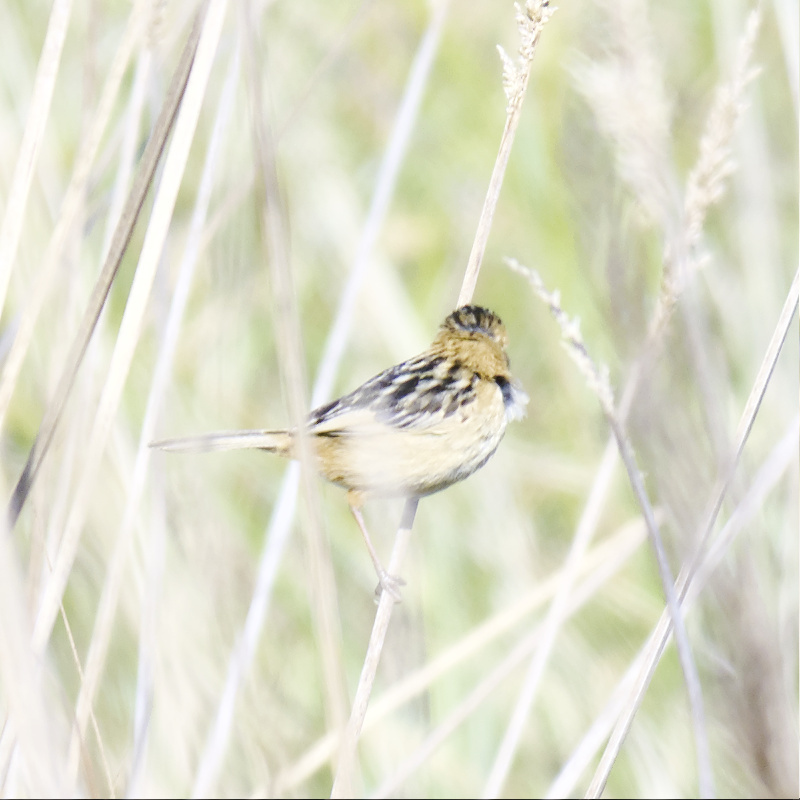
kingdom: Animalia
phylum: Chordata
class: Aves
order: Passeriformes
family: Cisticolidae
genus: Cisticola
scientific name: Cisticola exilis
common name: Golden-headed cisticola
